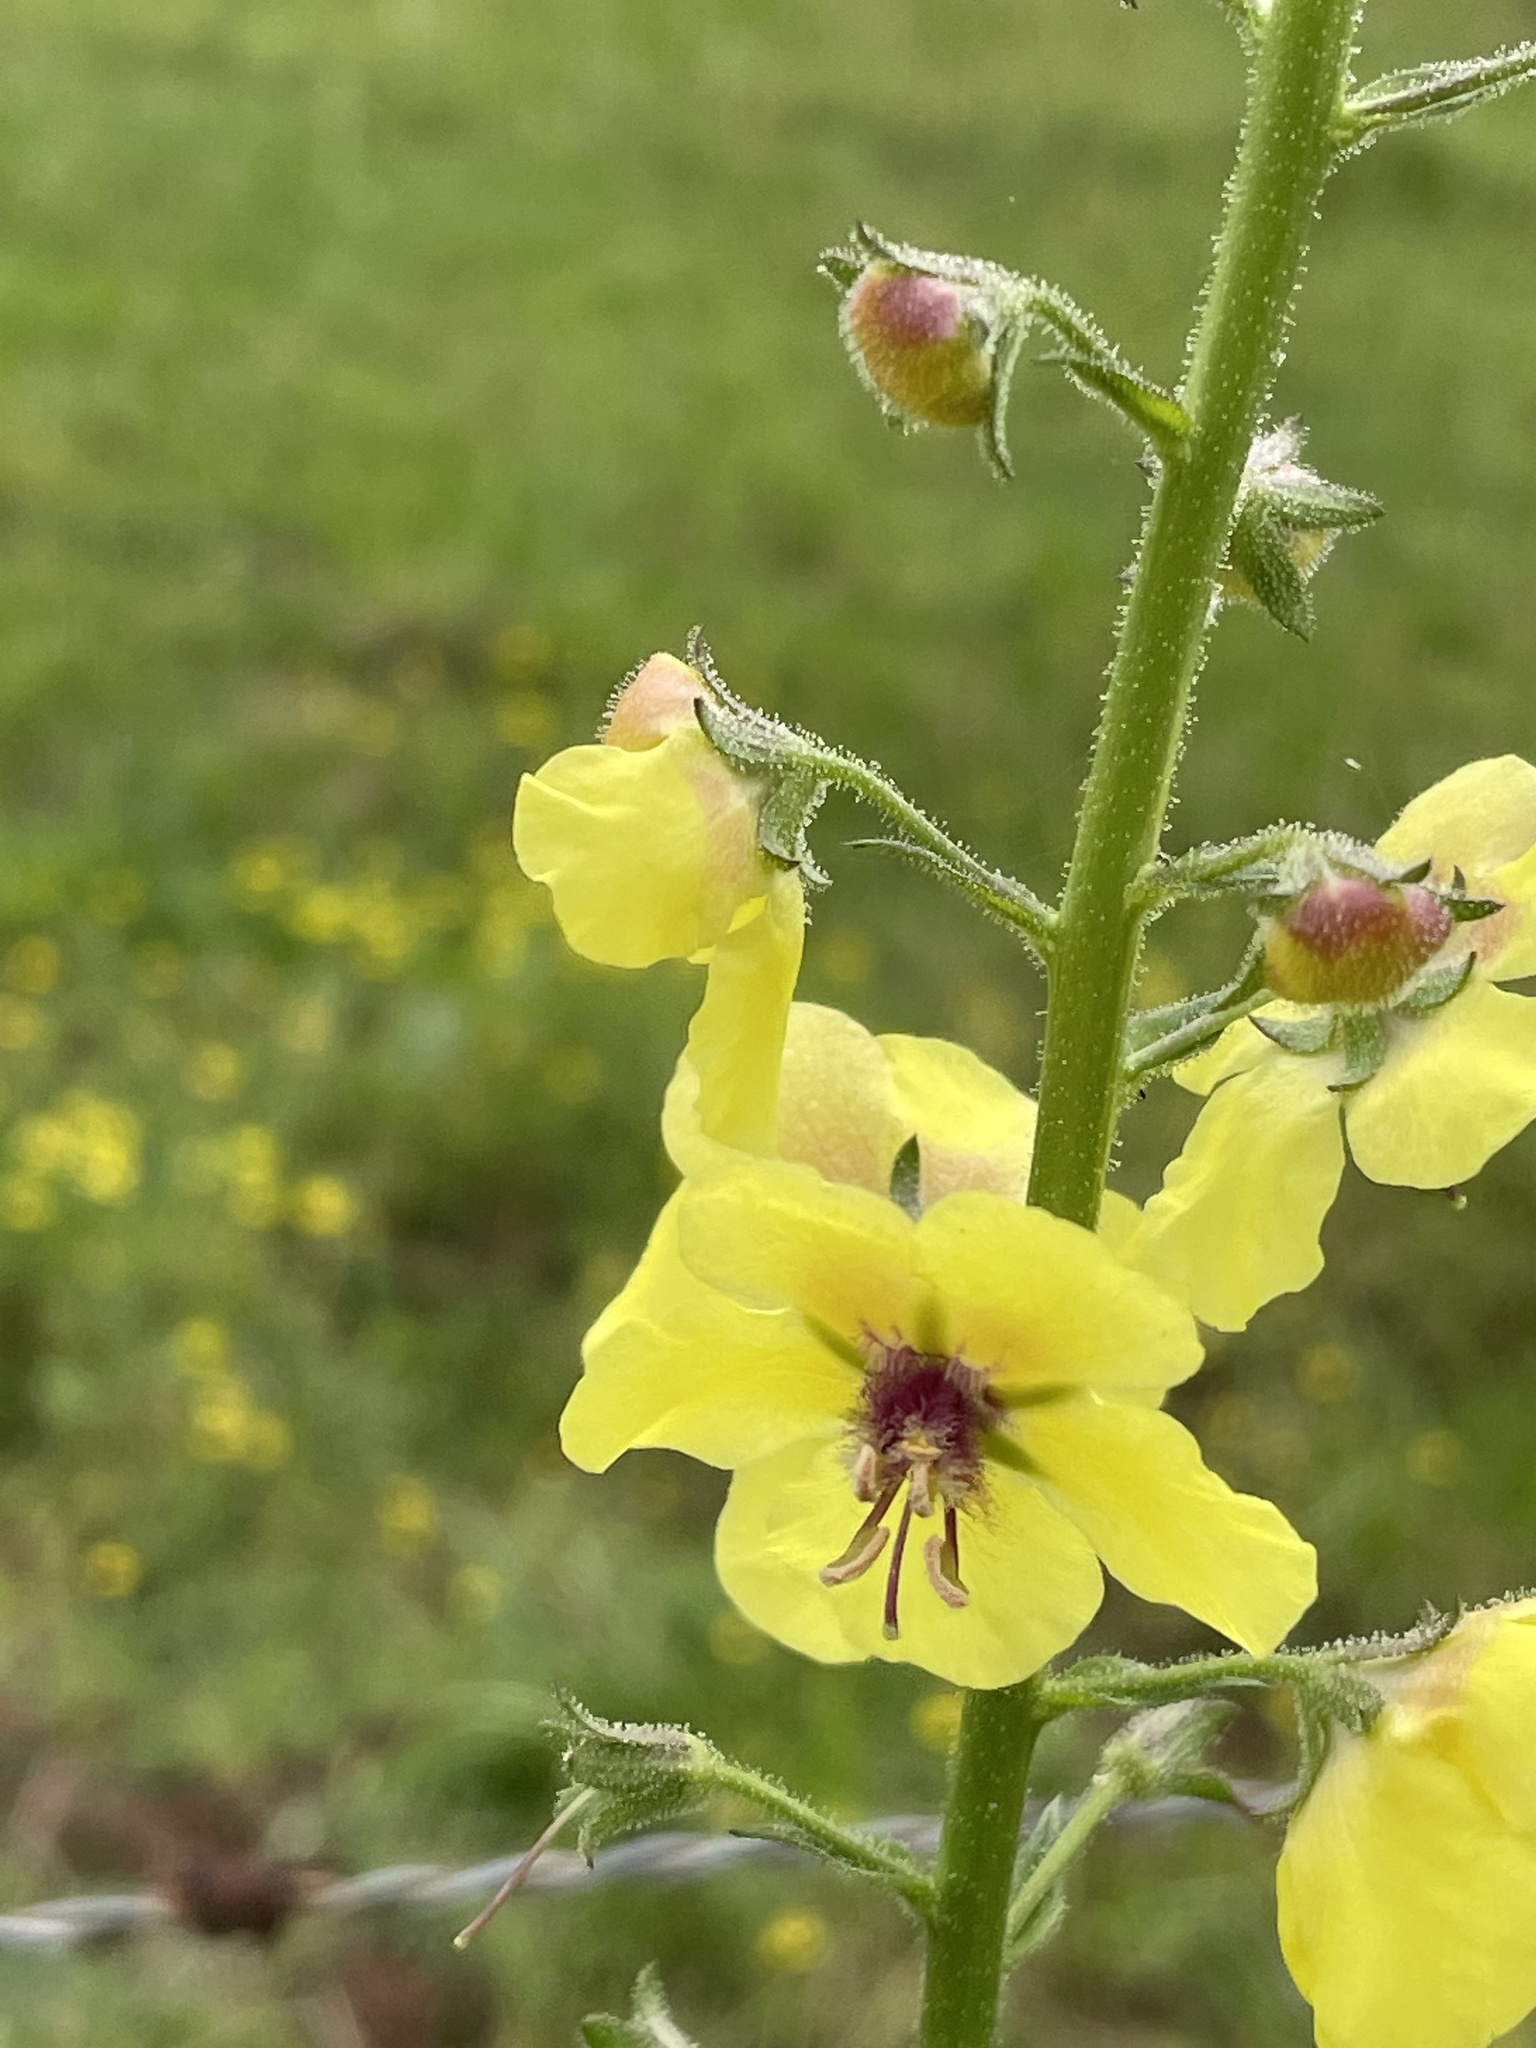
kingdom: Plantae
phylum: Tracheophyta
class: Magnoliopsida
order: Lamiales
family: Scrophulariaceae
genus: Verbascum
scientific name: Verbascum blattaria
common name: Moth mullein
